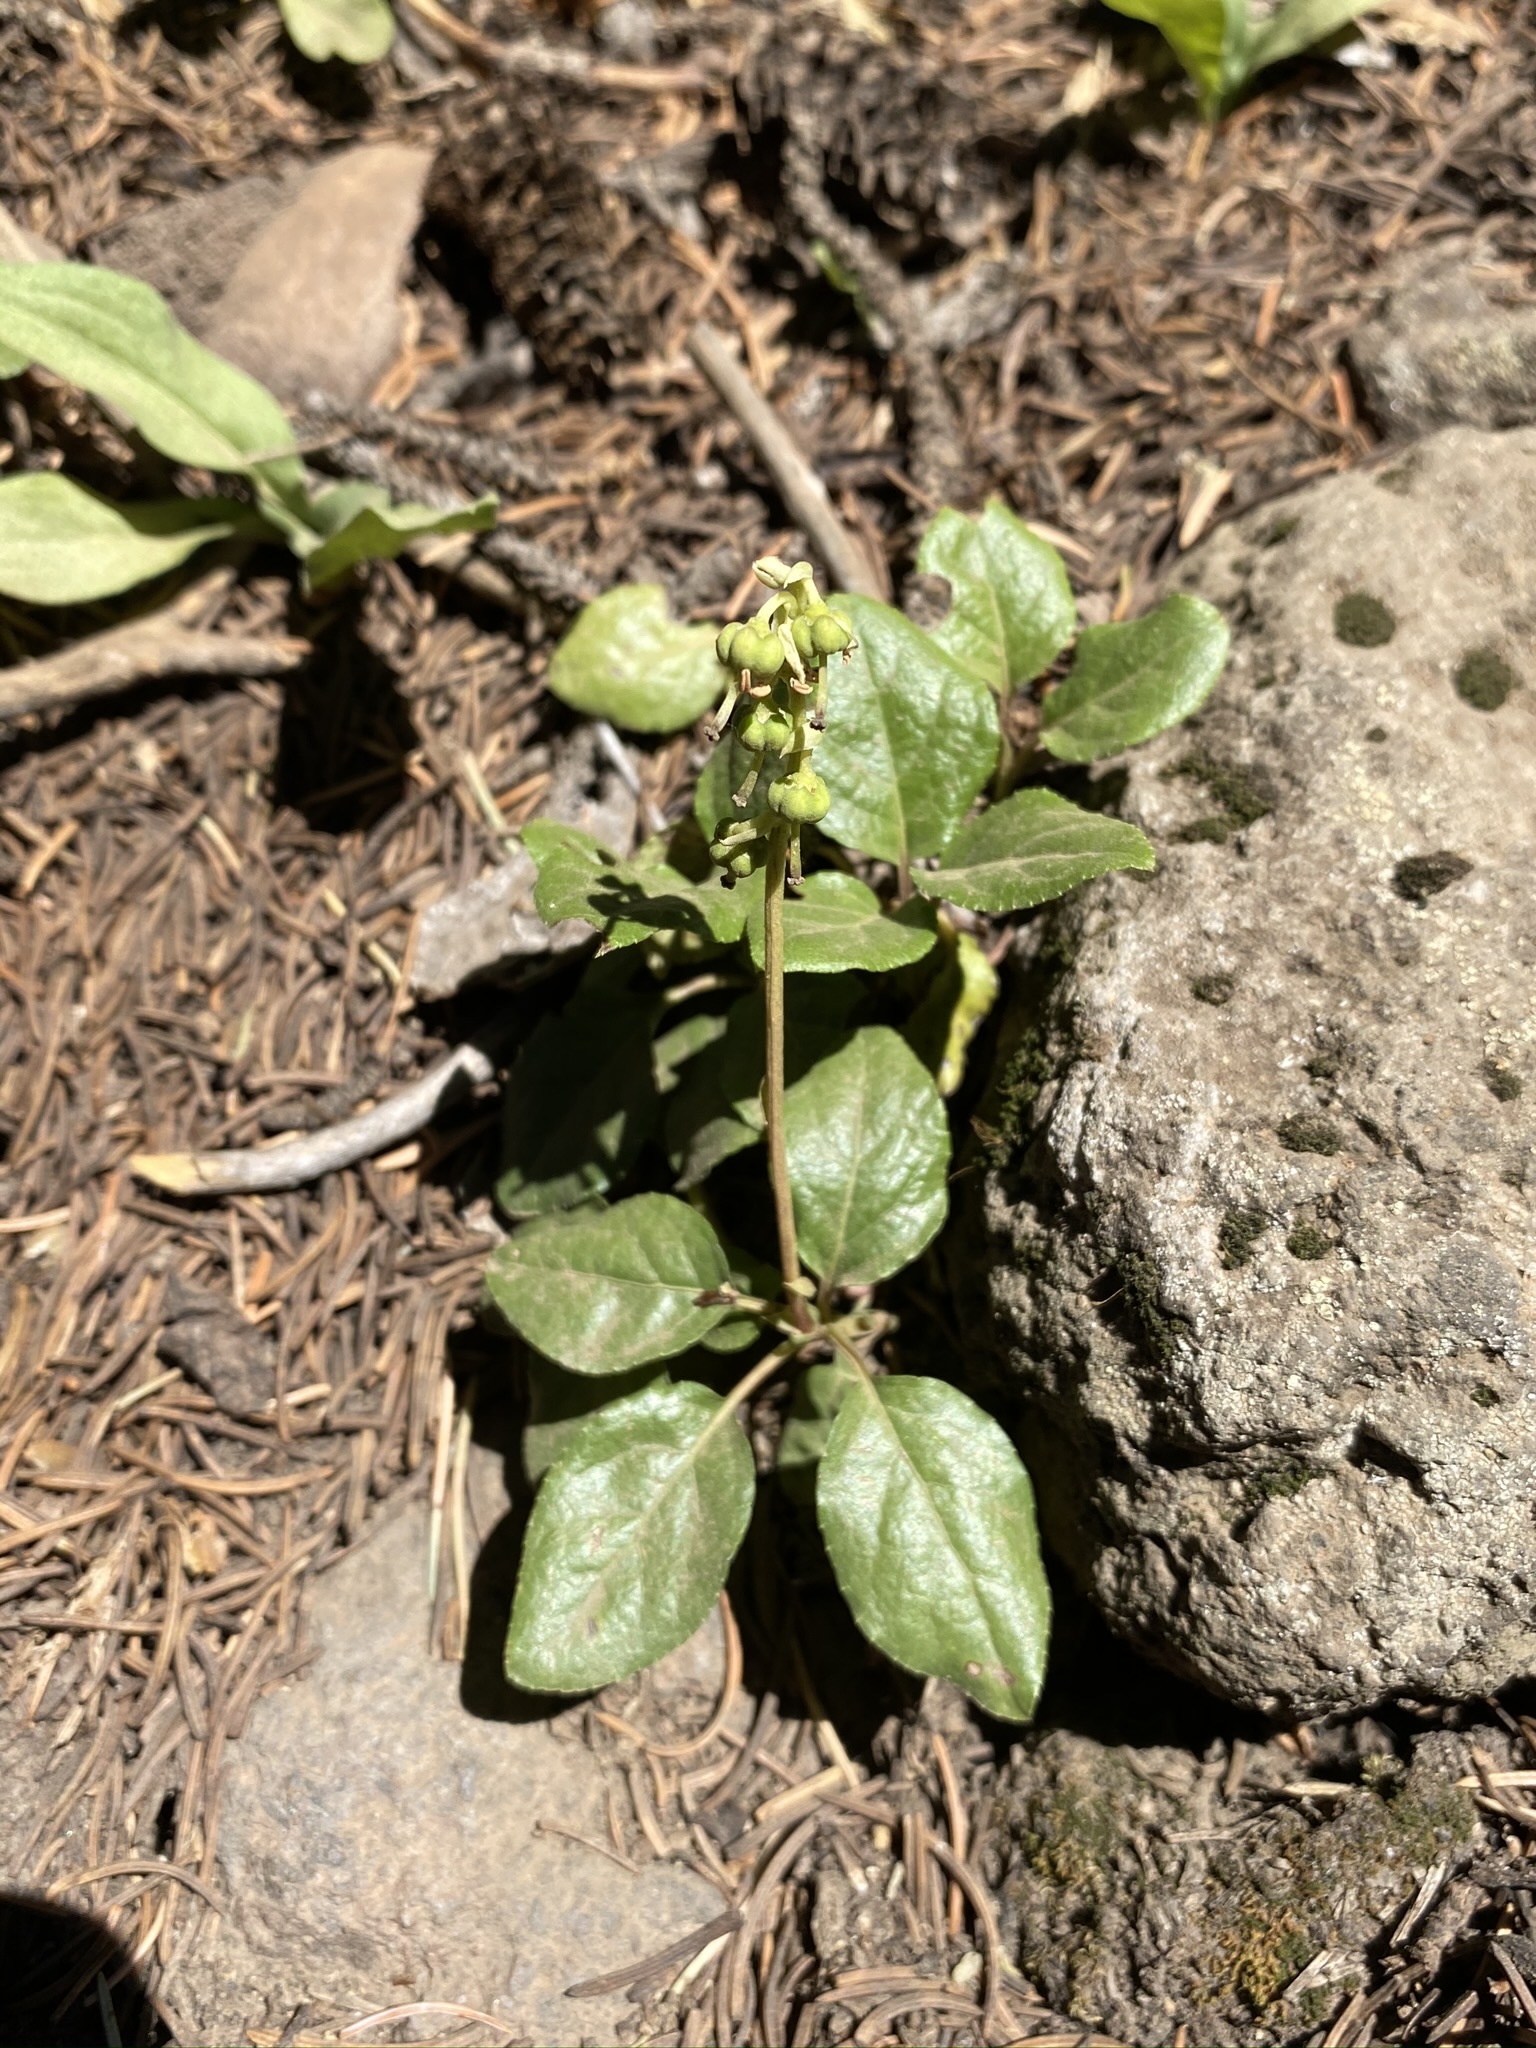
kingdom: Plantae
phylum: Tracheophyta
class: Magnoliopsida
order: Ericales
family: Ericaceae
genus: Orthilia
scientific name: Orthilia secunda
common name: One-sided orthilia
